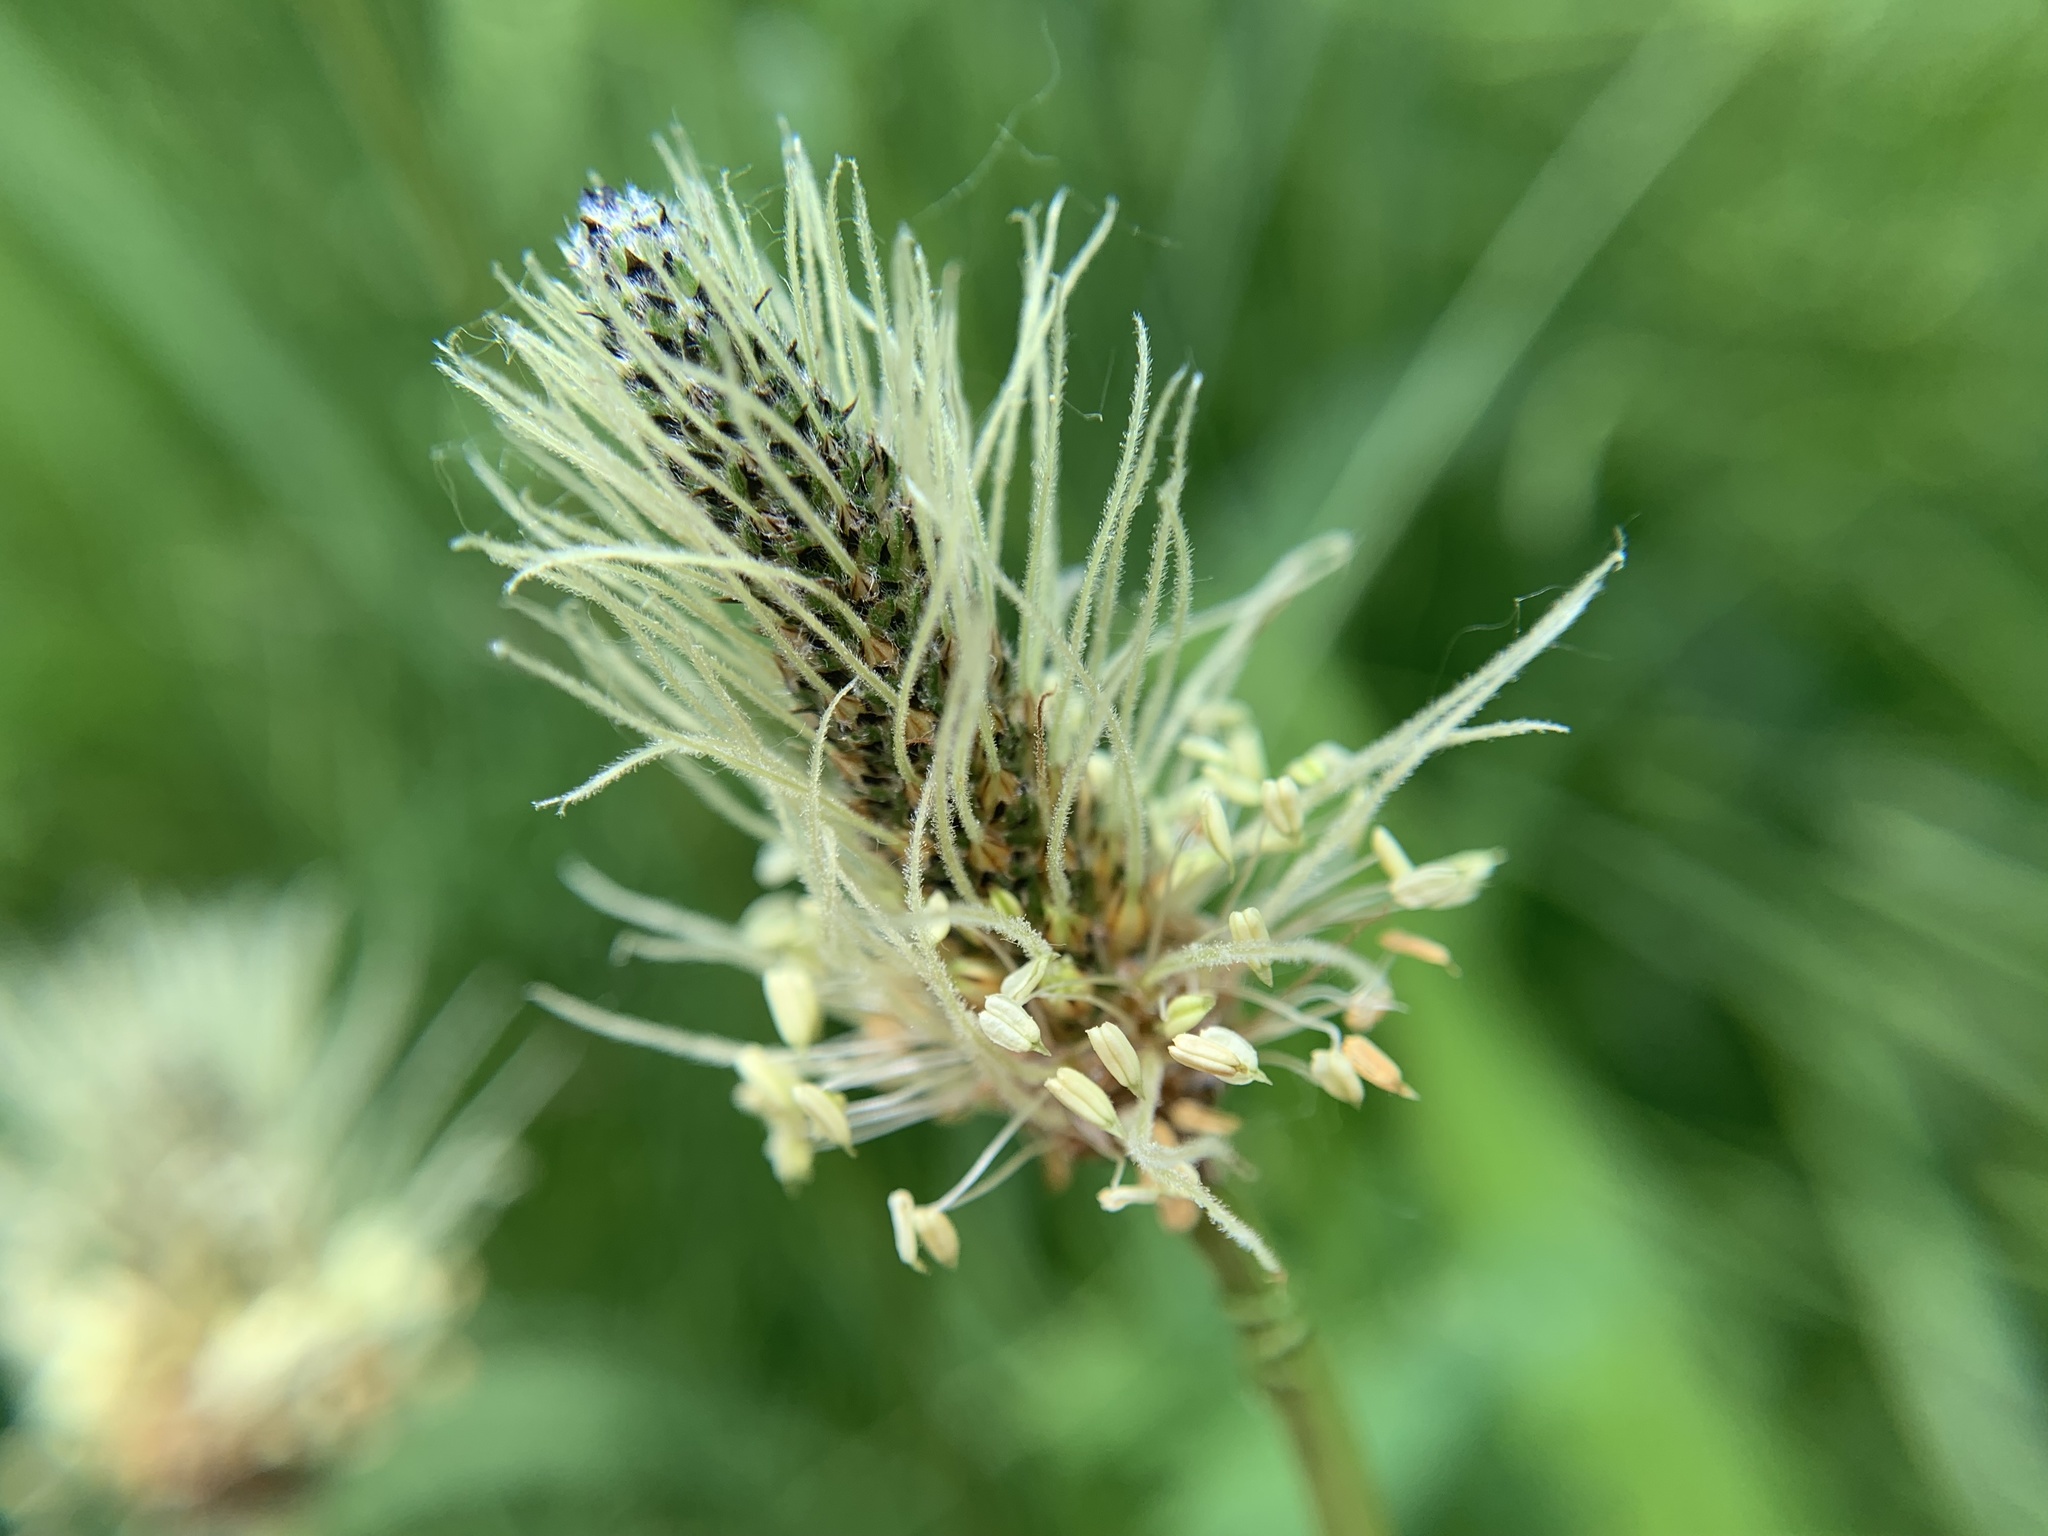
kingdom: Plantae
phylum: Tracheophyta
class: Magnoliopsida
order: Lamiales
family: Plantaginaceae
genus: Plantago
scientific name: Plantago lanceolata
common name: Ribwort plantain
